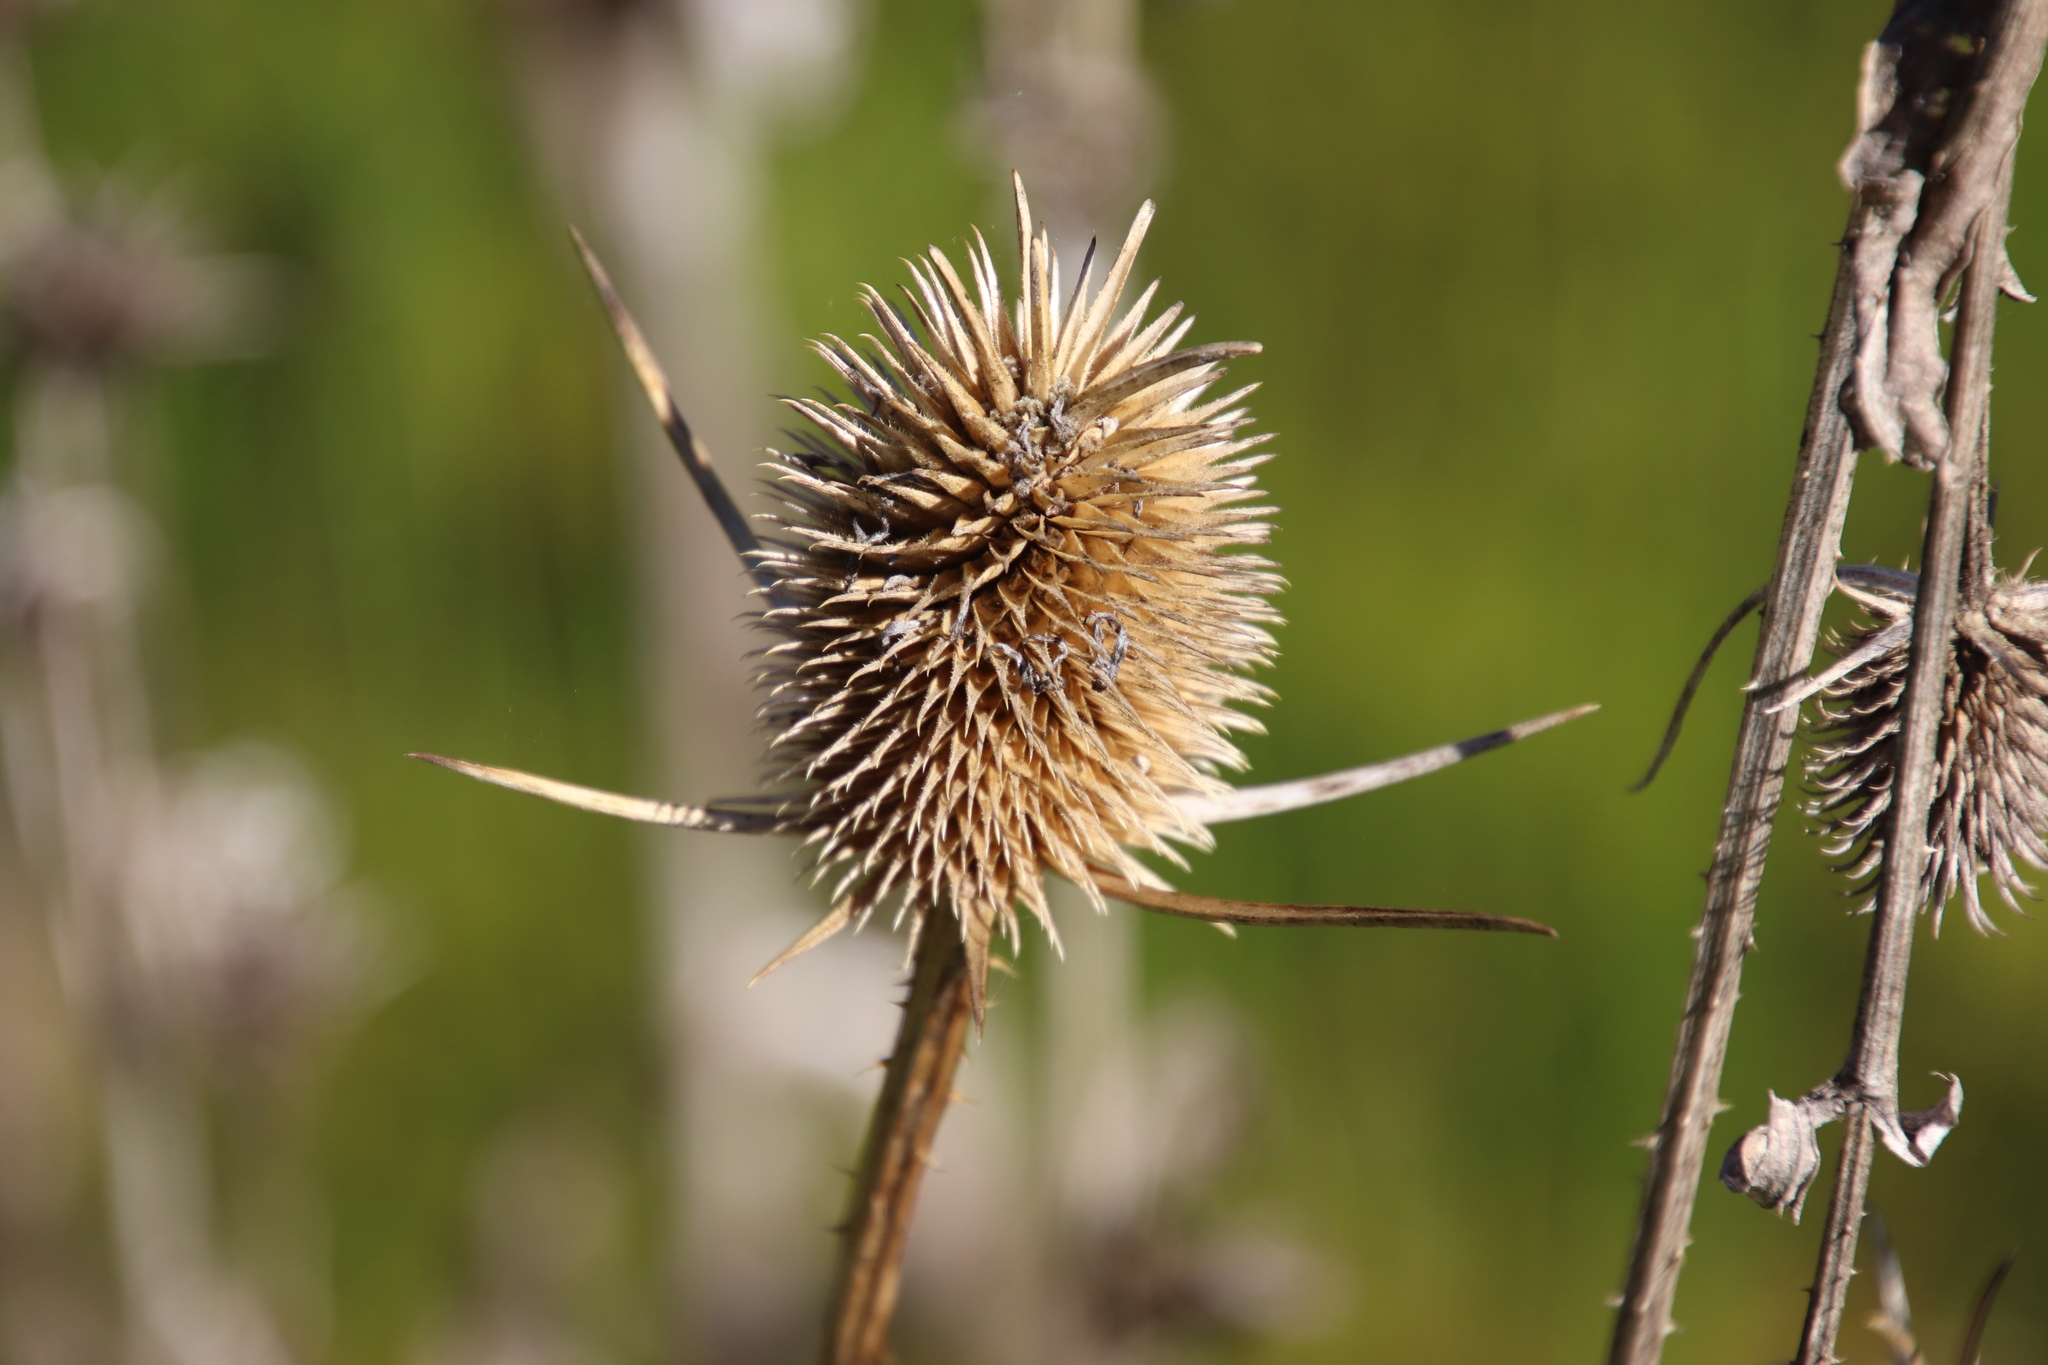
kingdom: Plantae
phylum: Tracheophyta
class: Magnoliopsida
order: Dipsacales
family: Caprifoliaceae
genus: Dipsacus
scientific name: Dipsacus sativus
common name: Fuller's teasel
